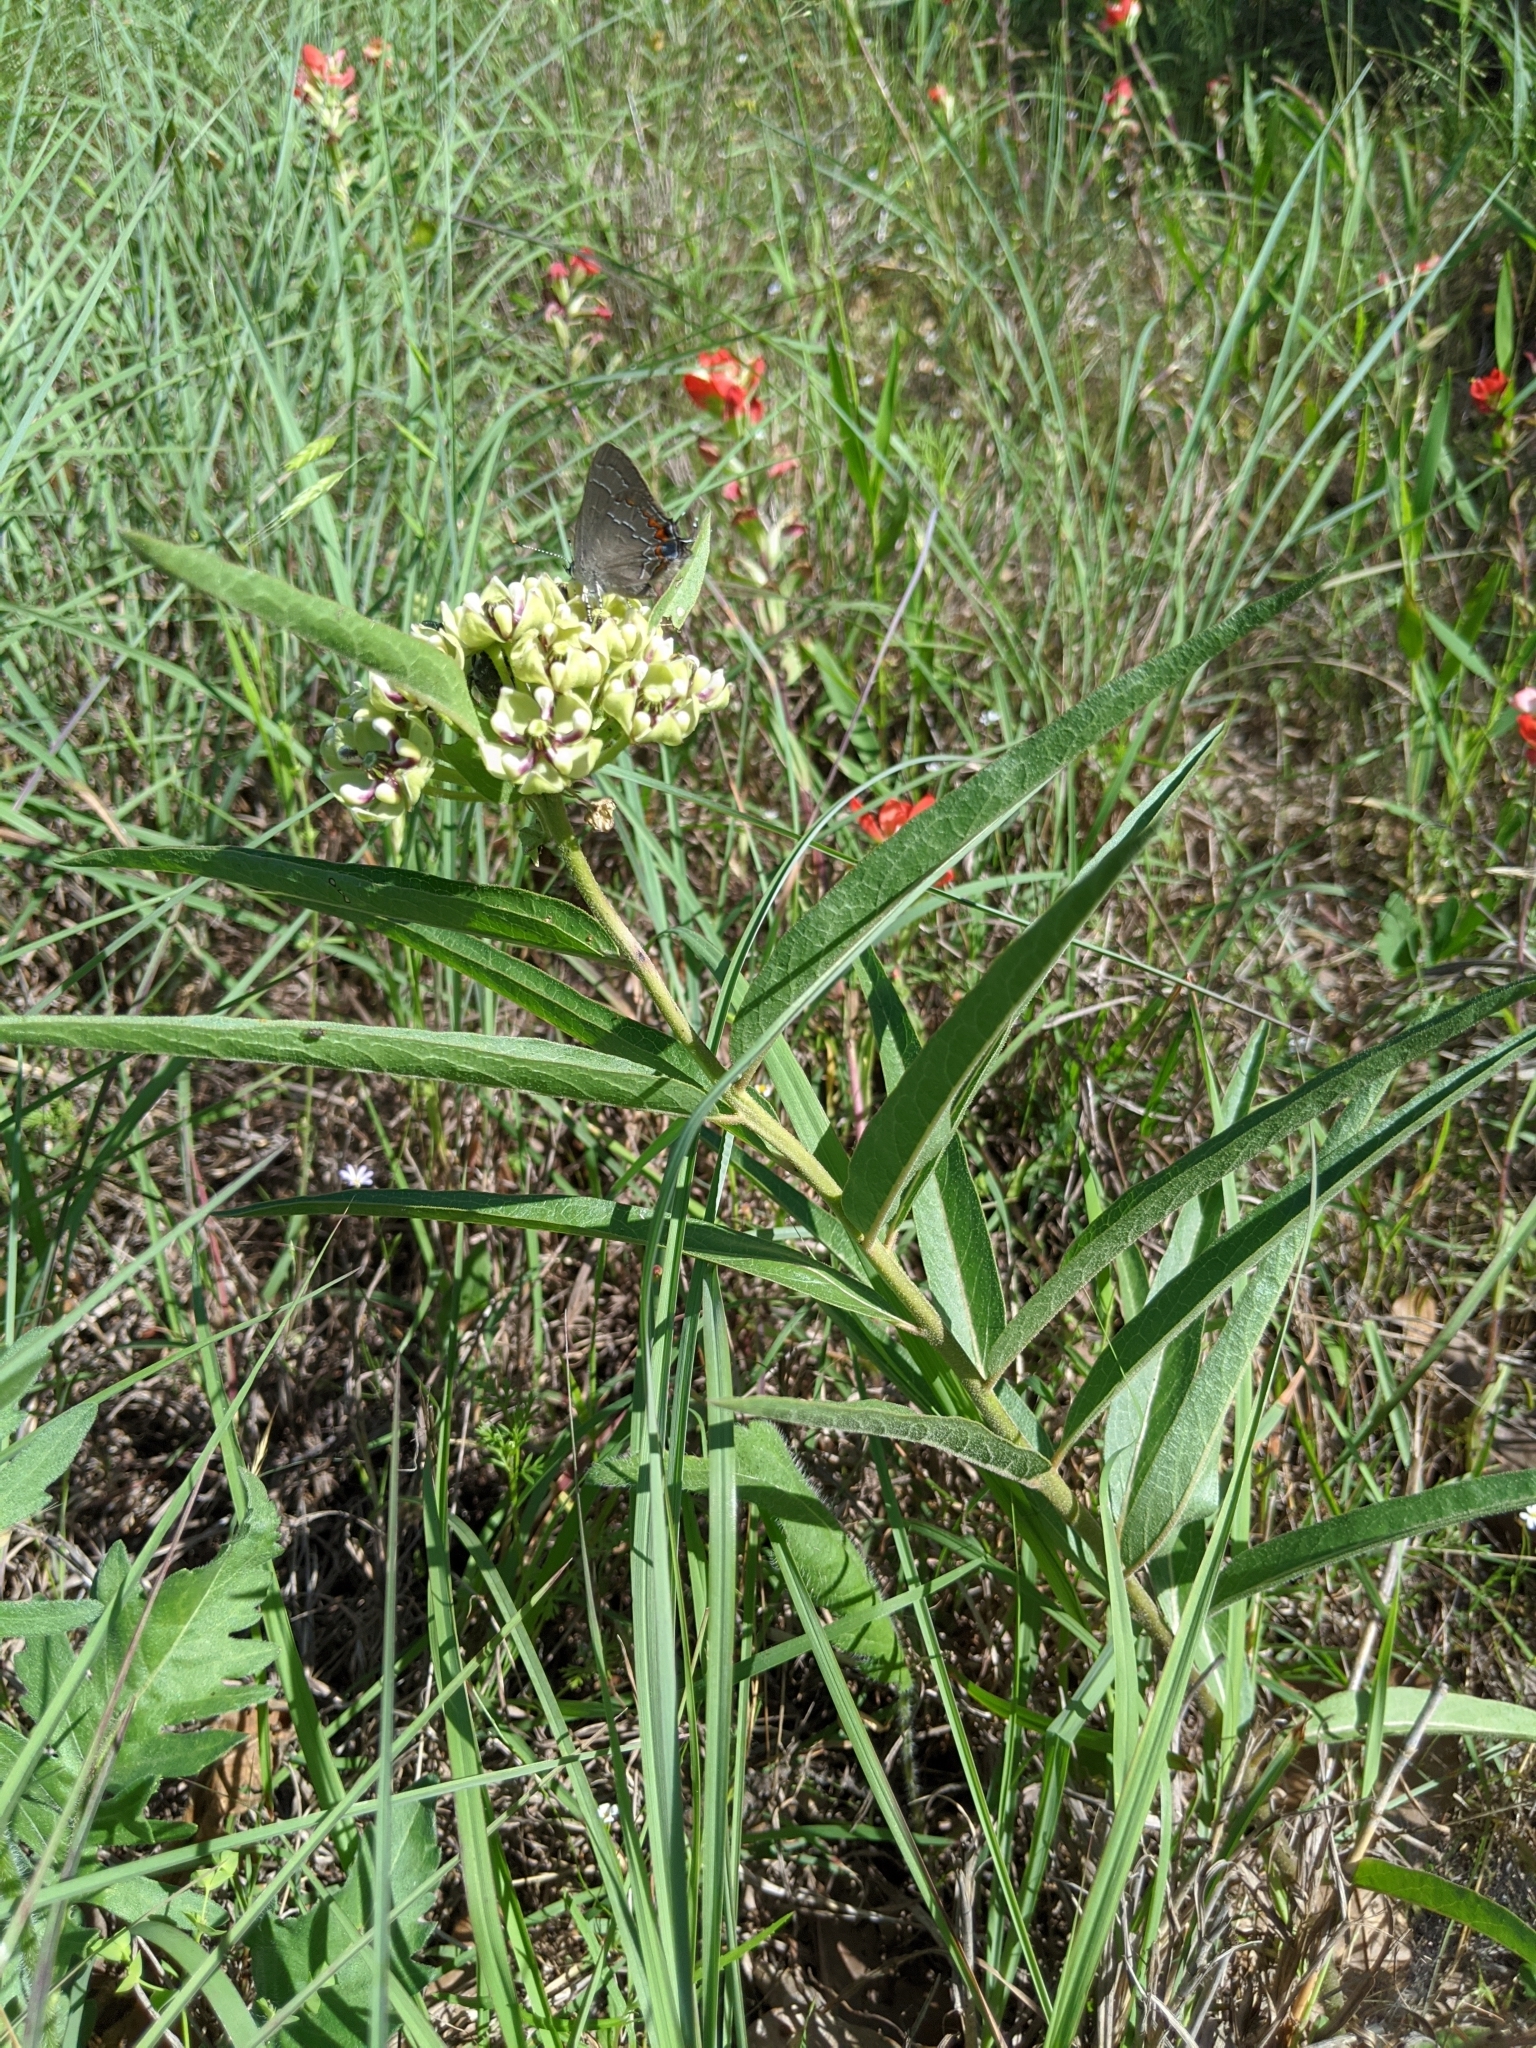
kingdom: Plantae
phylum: Tracheophyta
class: Magnoliopsida
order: Gentianales
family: Apocynaceae
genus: Asclepias
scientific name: Asclepias asperula
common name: Antelope horns
